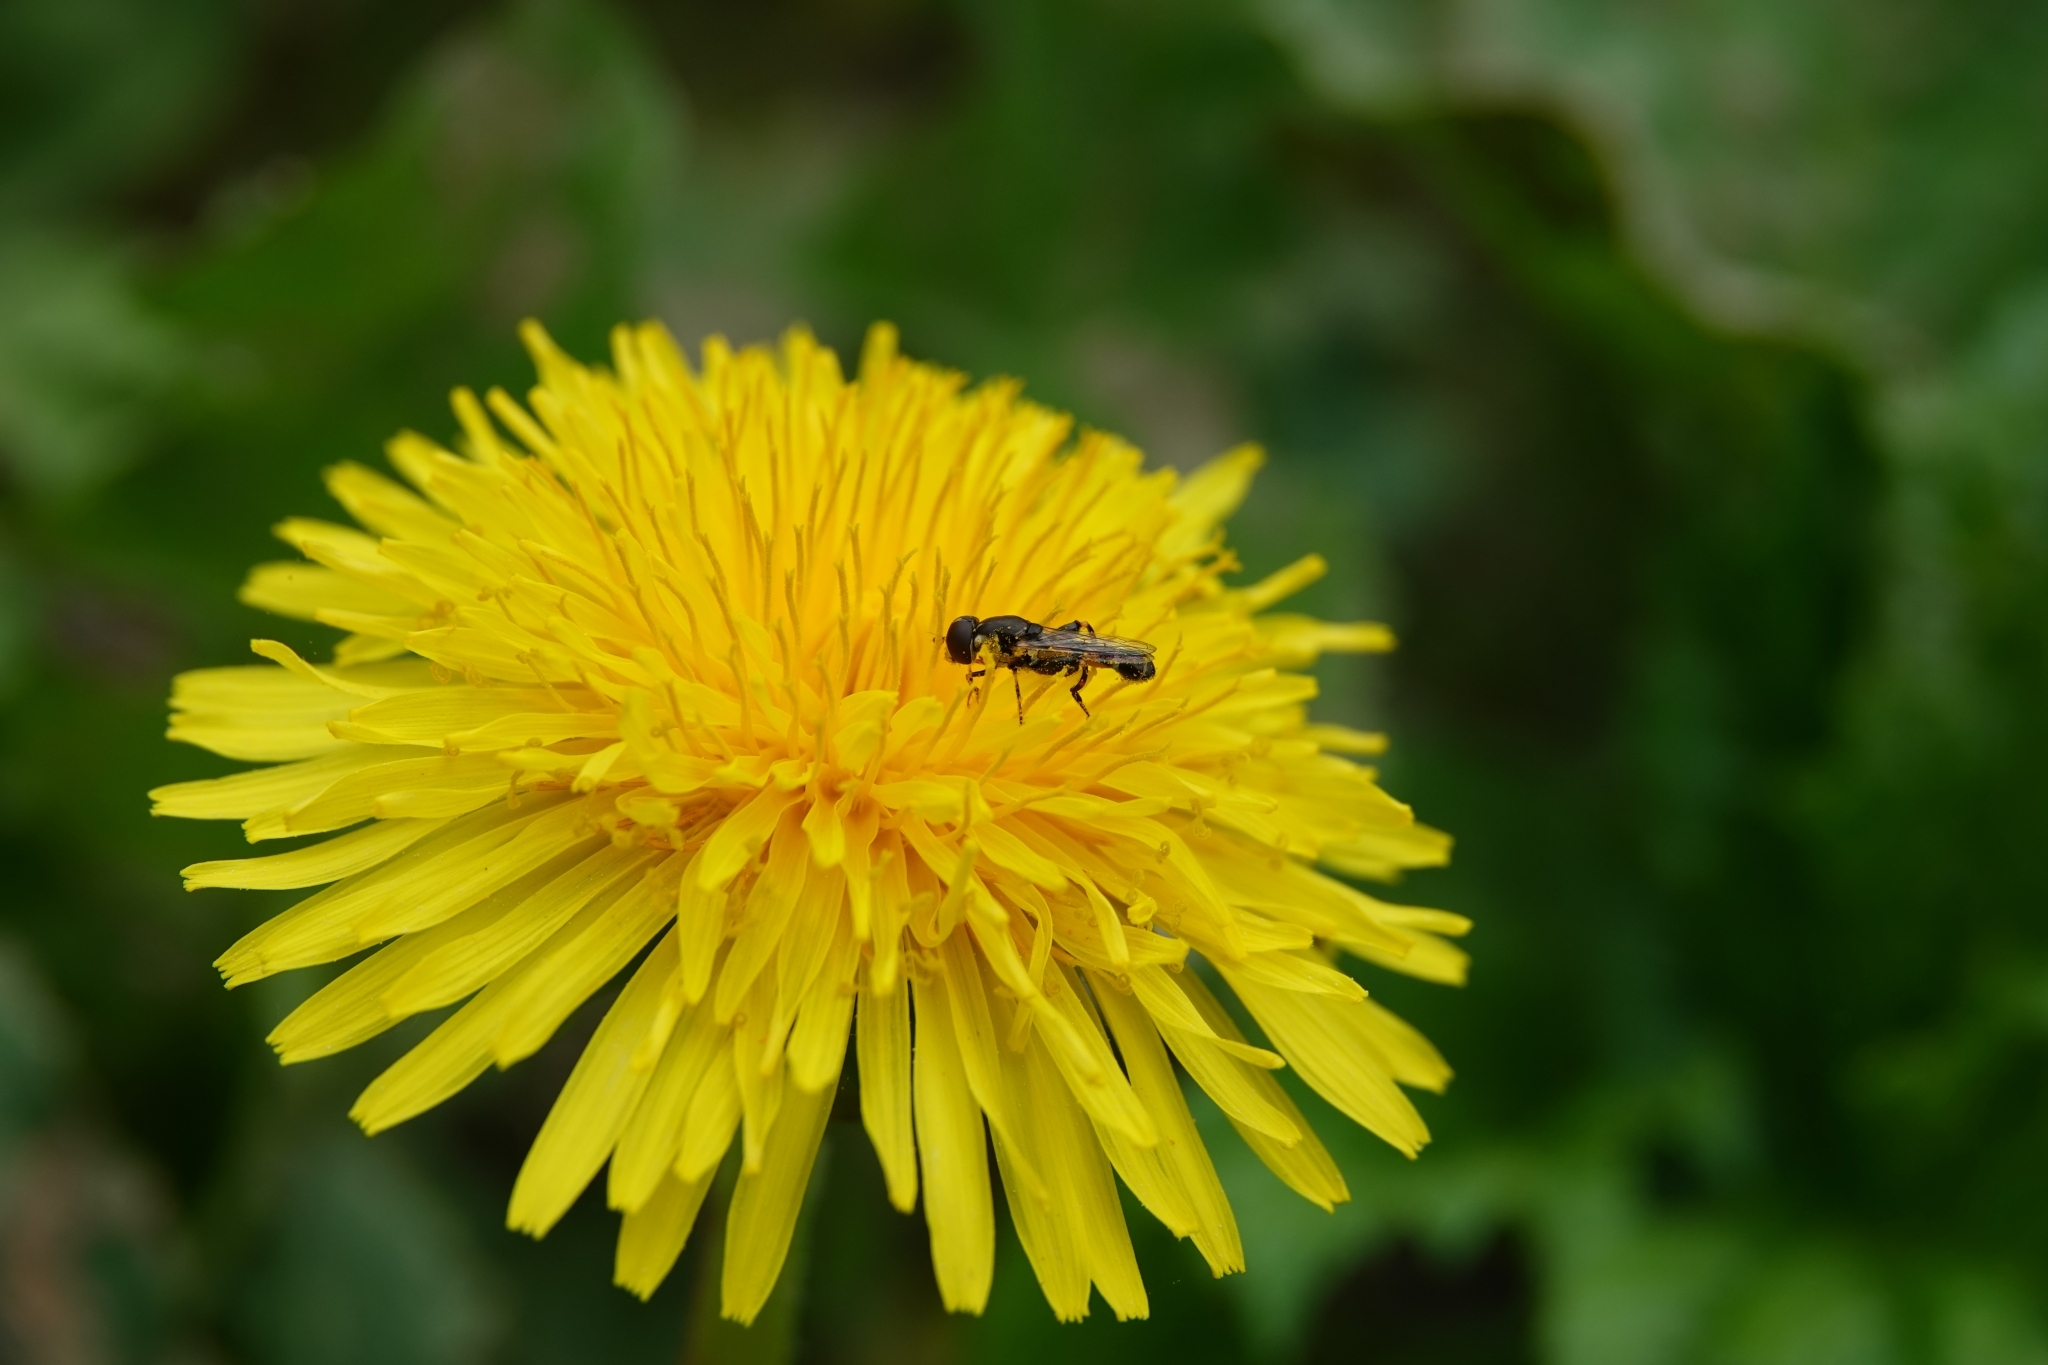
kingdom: Animalia
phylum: Arthropoda
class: Insecta
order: Diptera
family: Syrphidae
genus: Syritta
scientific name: Syritta pipiens
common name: Hover fly
